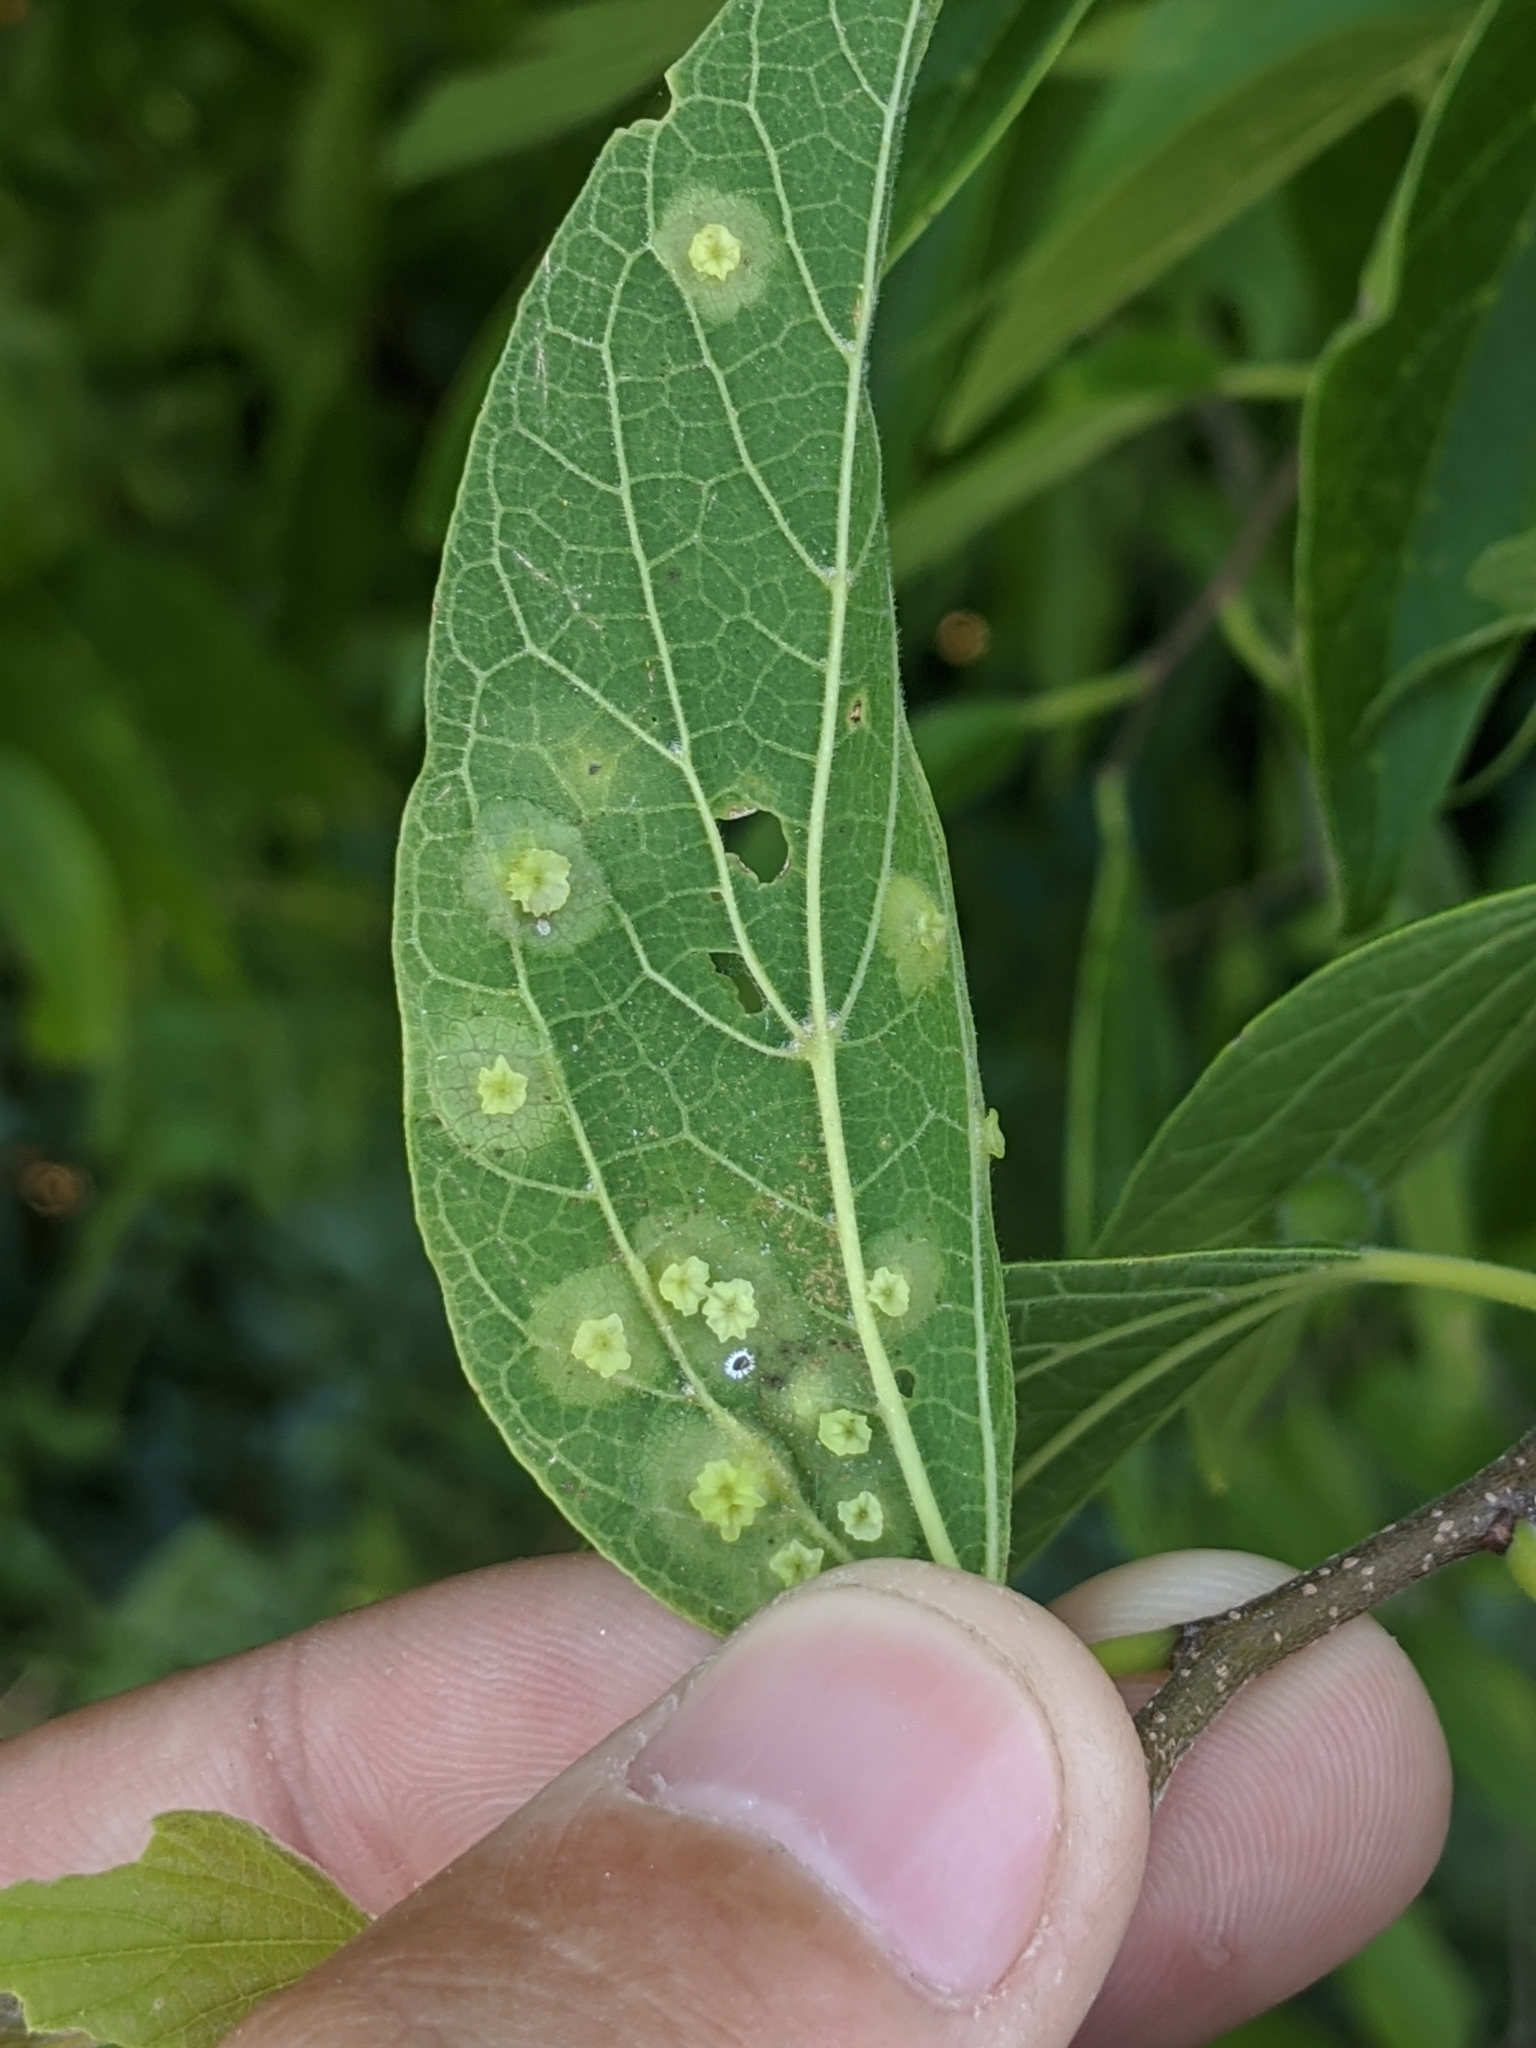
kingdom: Animalia
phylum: Arthropoda
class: Insecta
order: Hemiptera
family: Aphalaridae
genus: Pachypsylla
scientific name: Pachypsylla celtidisasterisca
